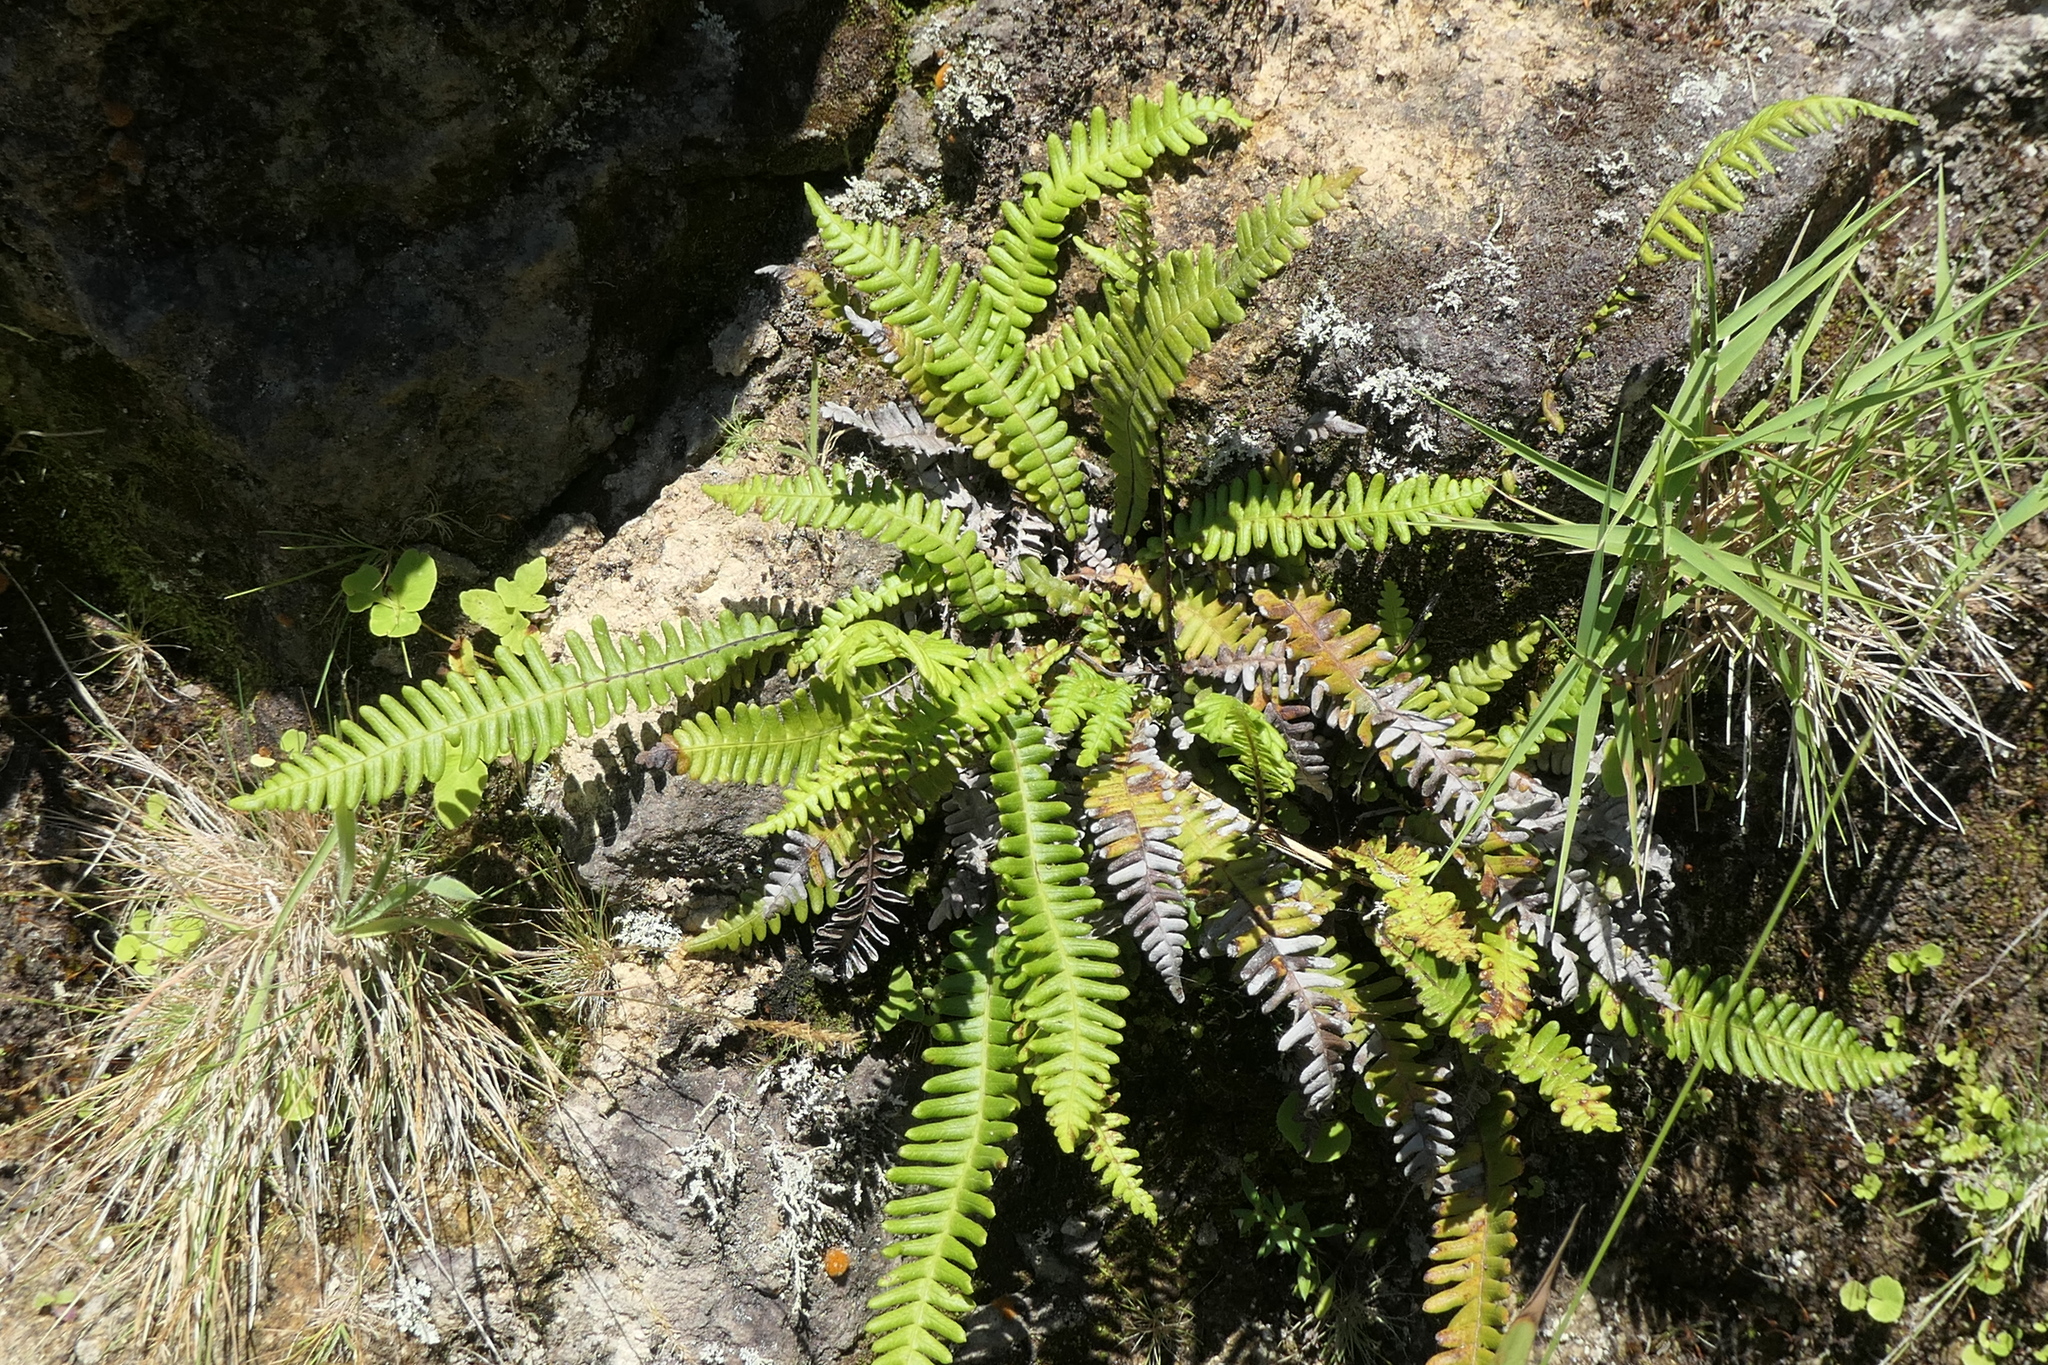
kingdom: Plantae
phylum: Tracheophyta
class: Polypodiopsida
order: Polypodiales
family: Blechnaceae
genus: Struthiopteris
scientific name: Struthiopteris spicant
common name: Deer fern
